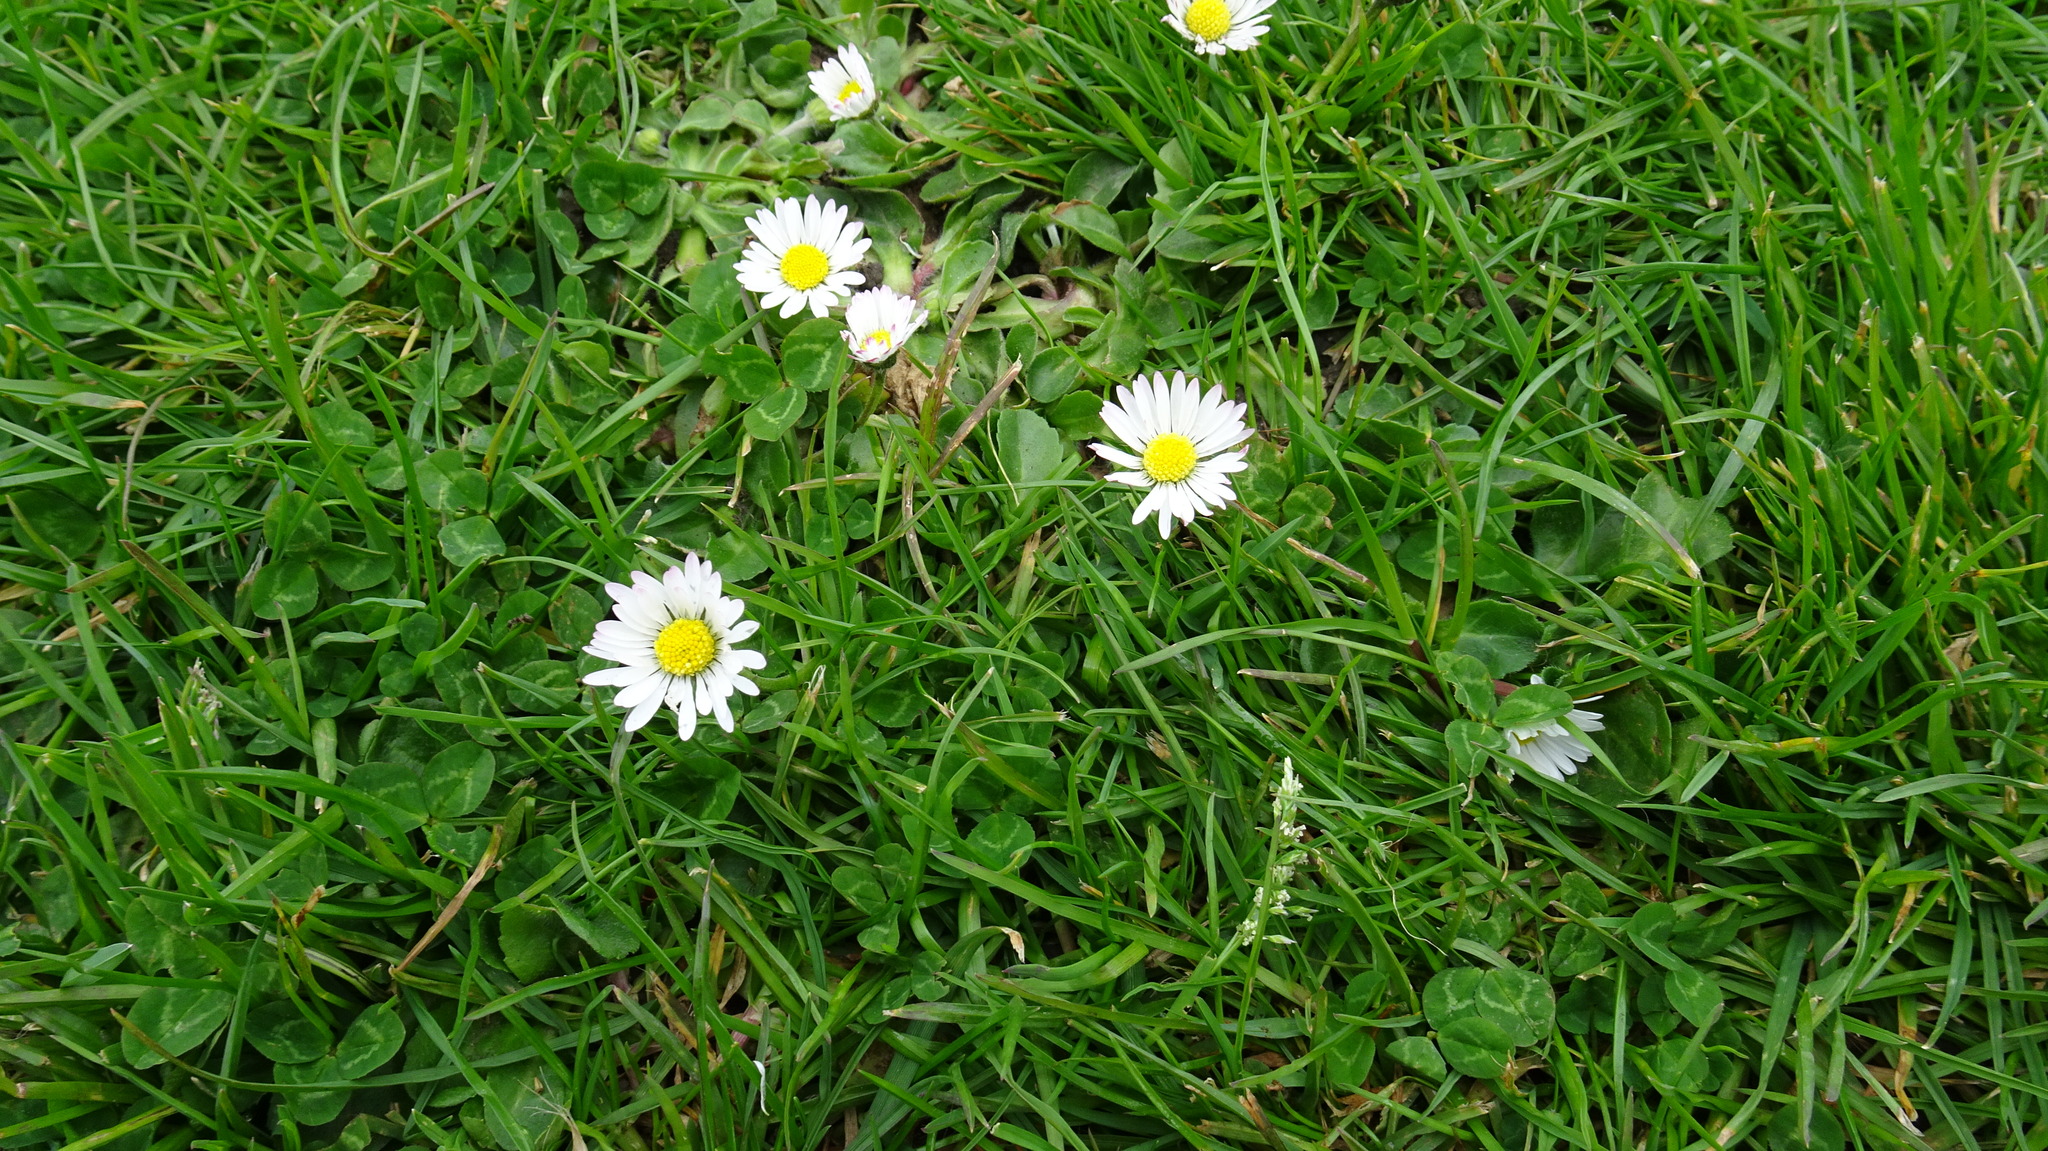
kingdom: Plantae
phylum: Tracheophyta
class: Magnoliopsida
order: Asterales
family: Asteraceae
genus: Bellis
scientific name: Bellis perennis
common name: Lawndaisy
